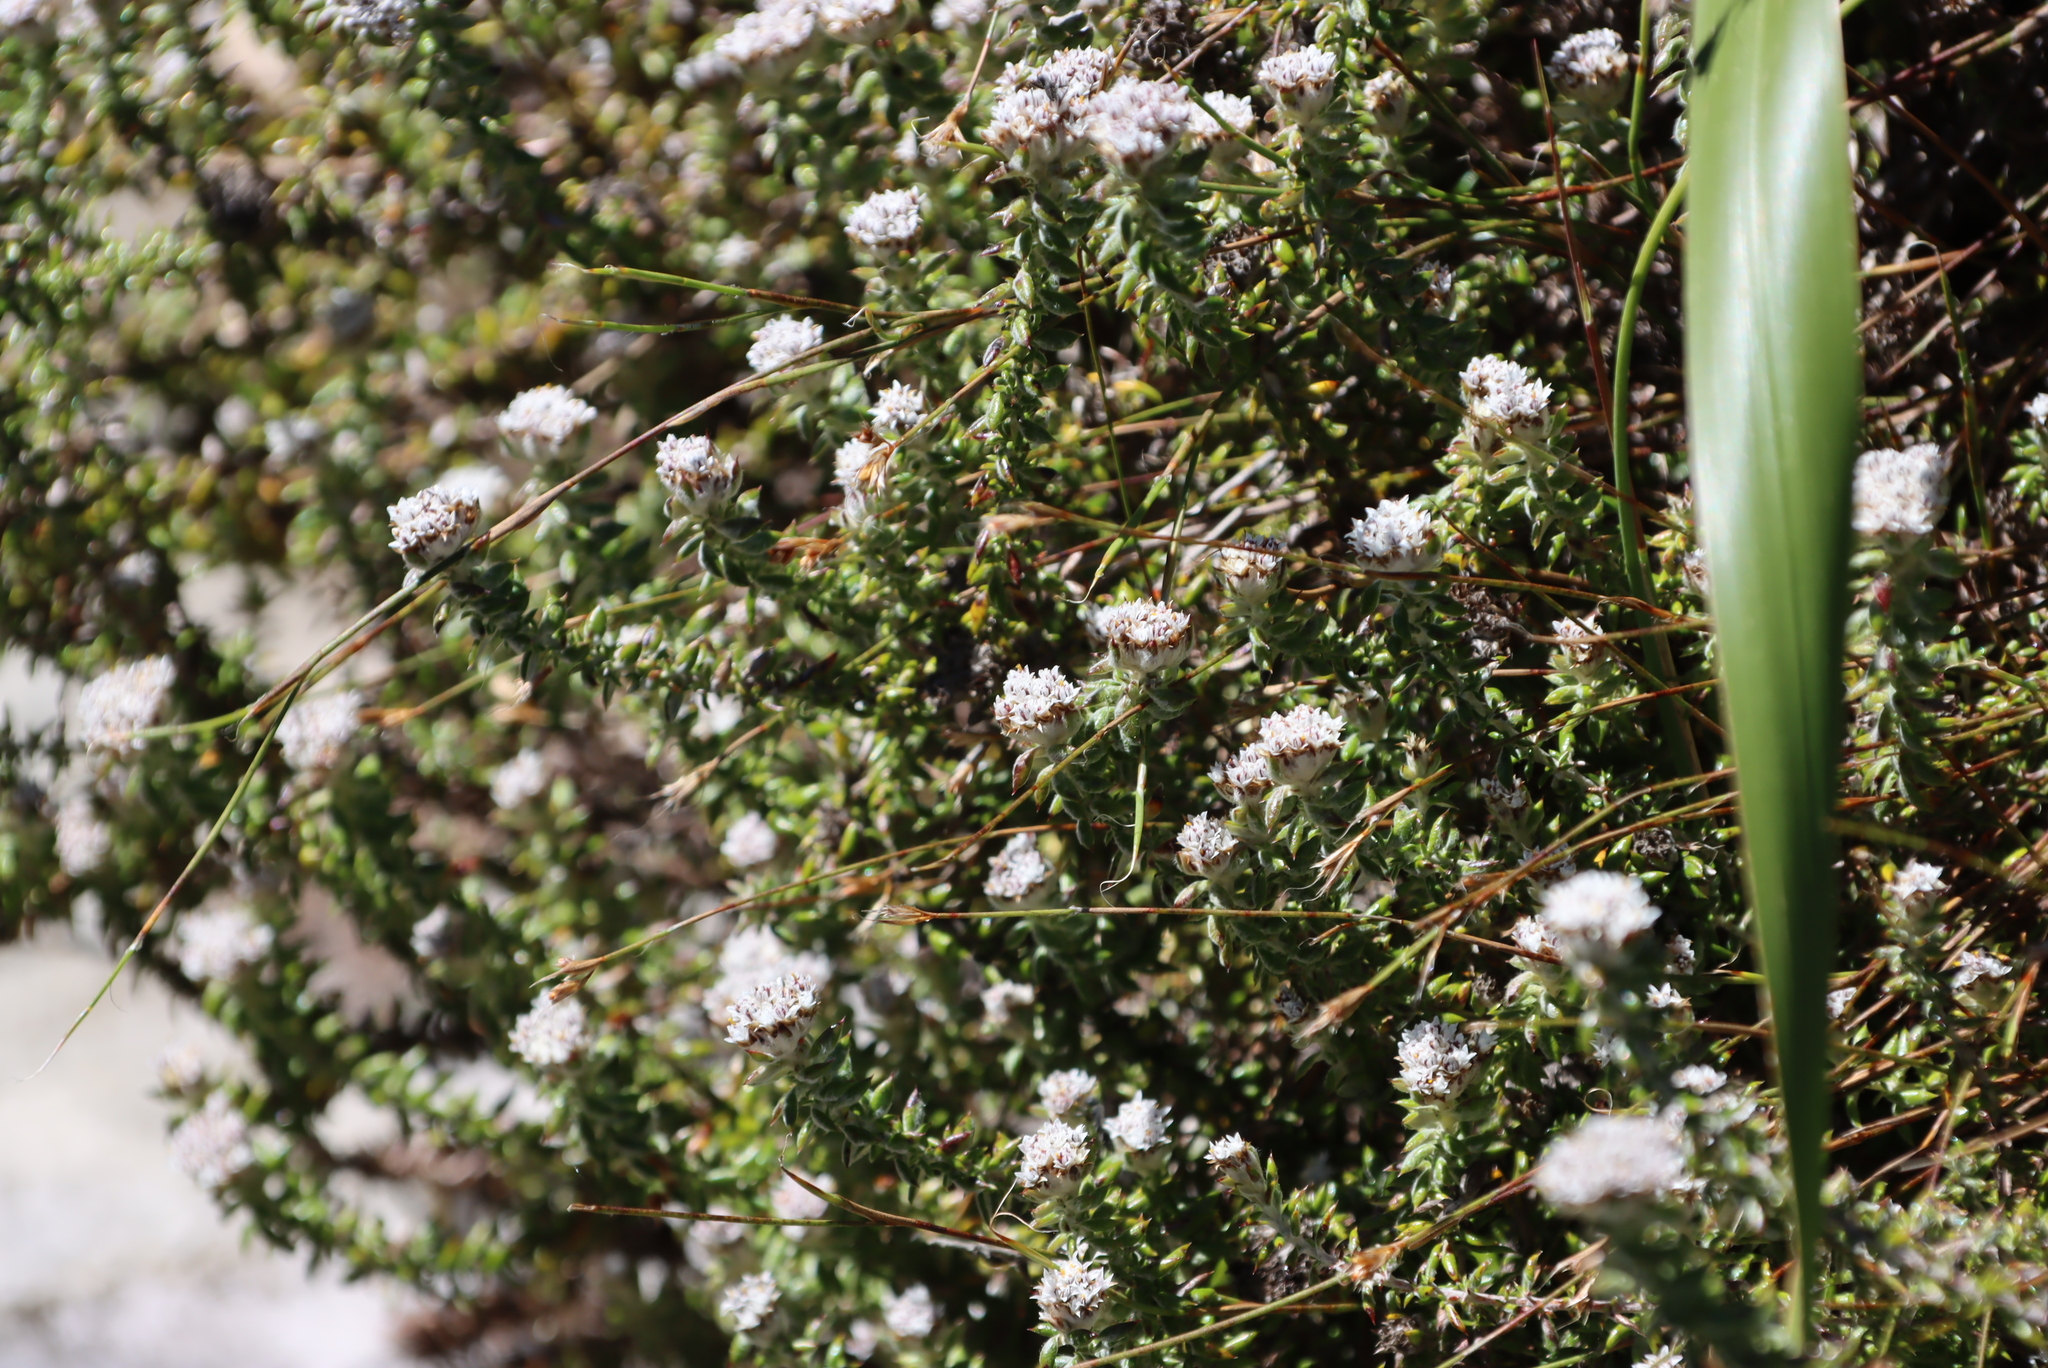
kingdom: Plantae
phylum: Tracheophyta
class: Magnoliopsida
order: Asterales
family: Asteraceae
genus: Metalasia
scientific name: Metalasia divergens
